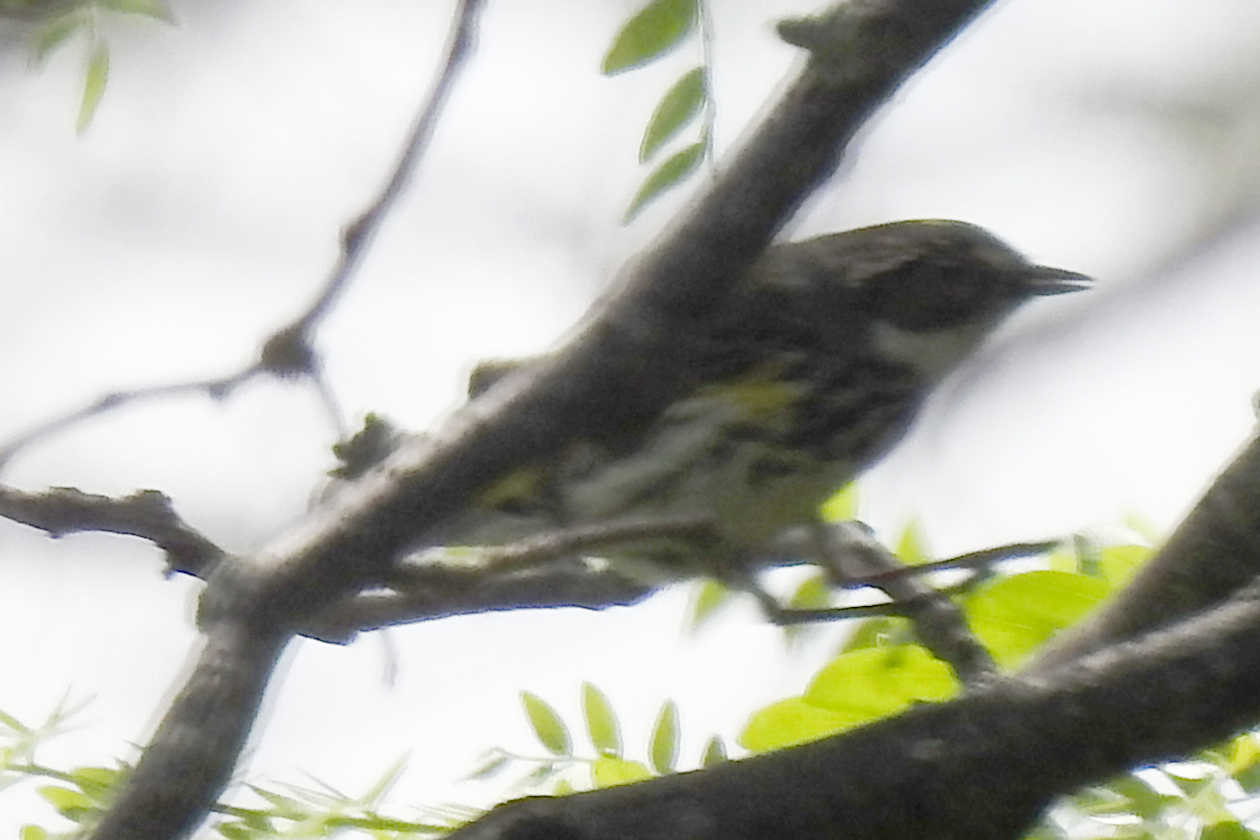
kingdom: Animalia
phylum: Chordata
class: Aves
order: Passeriformes
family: Parulidae
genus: Setophaga
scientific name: Setophaga coronata
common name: Myrtle warbler
